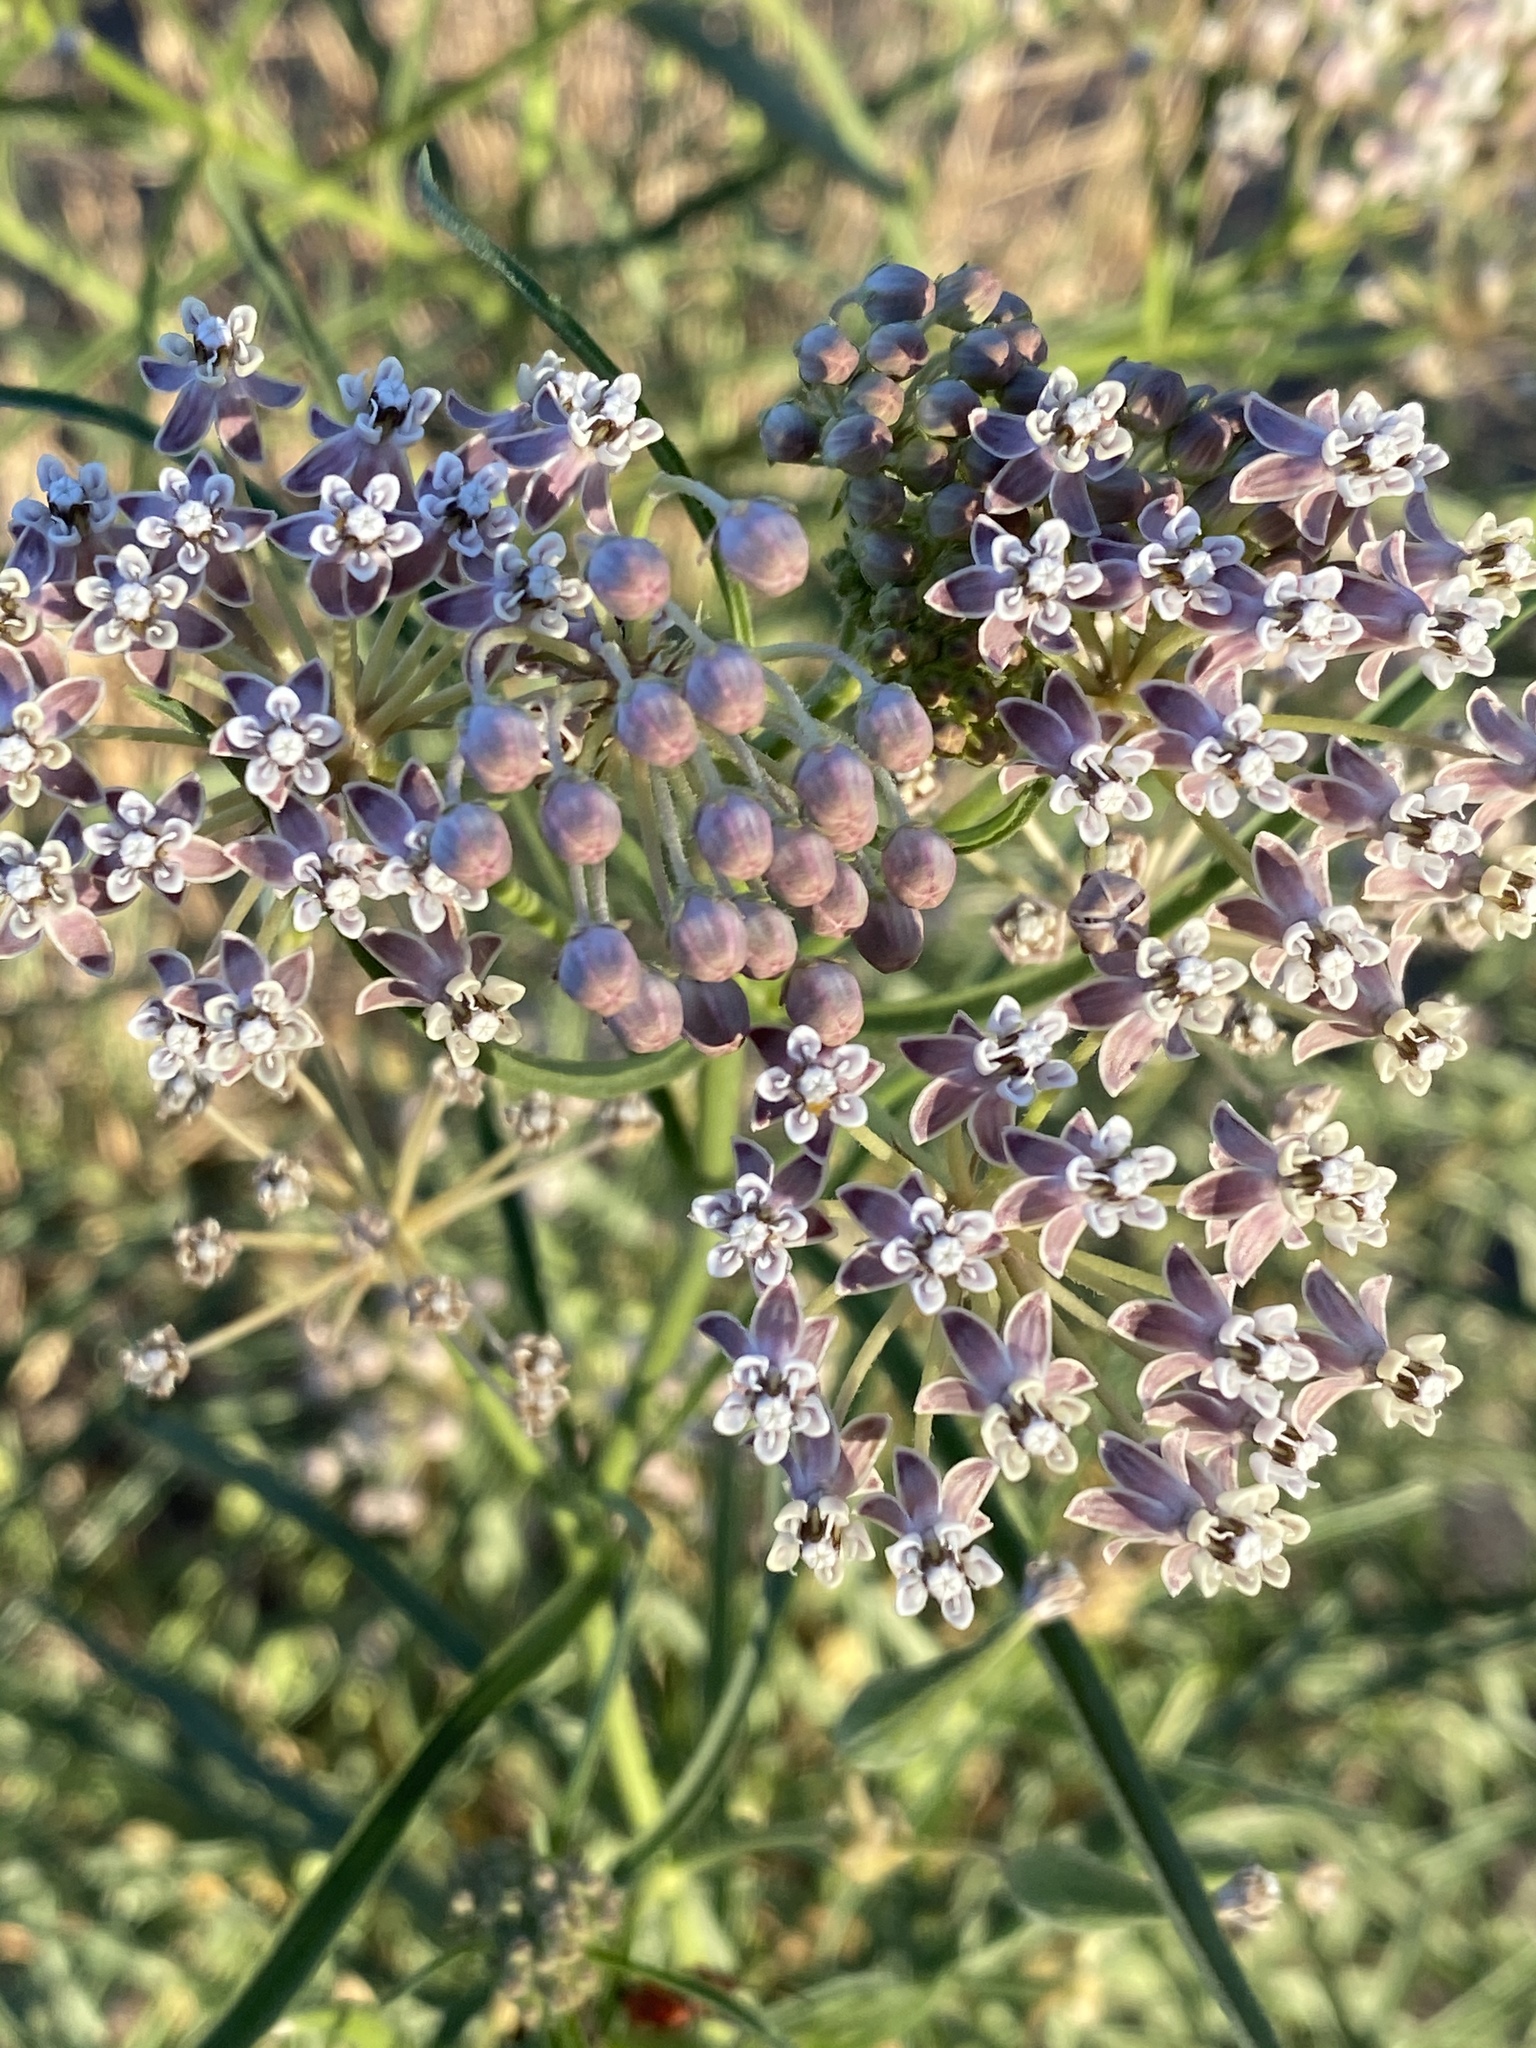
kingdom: Plantae
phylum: Tracheophyta
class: Magnoliopsida
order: Gentianales
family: Apocynaceae
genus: Asclepias
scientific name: Asclepias fascicularis
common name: Mexican milkweed
